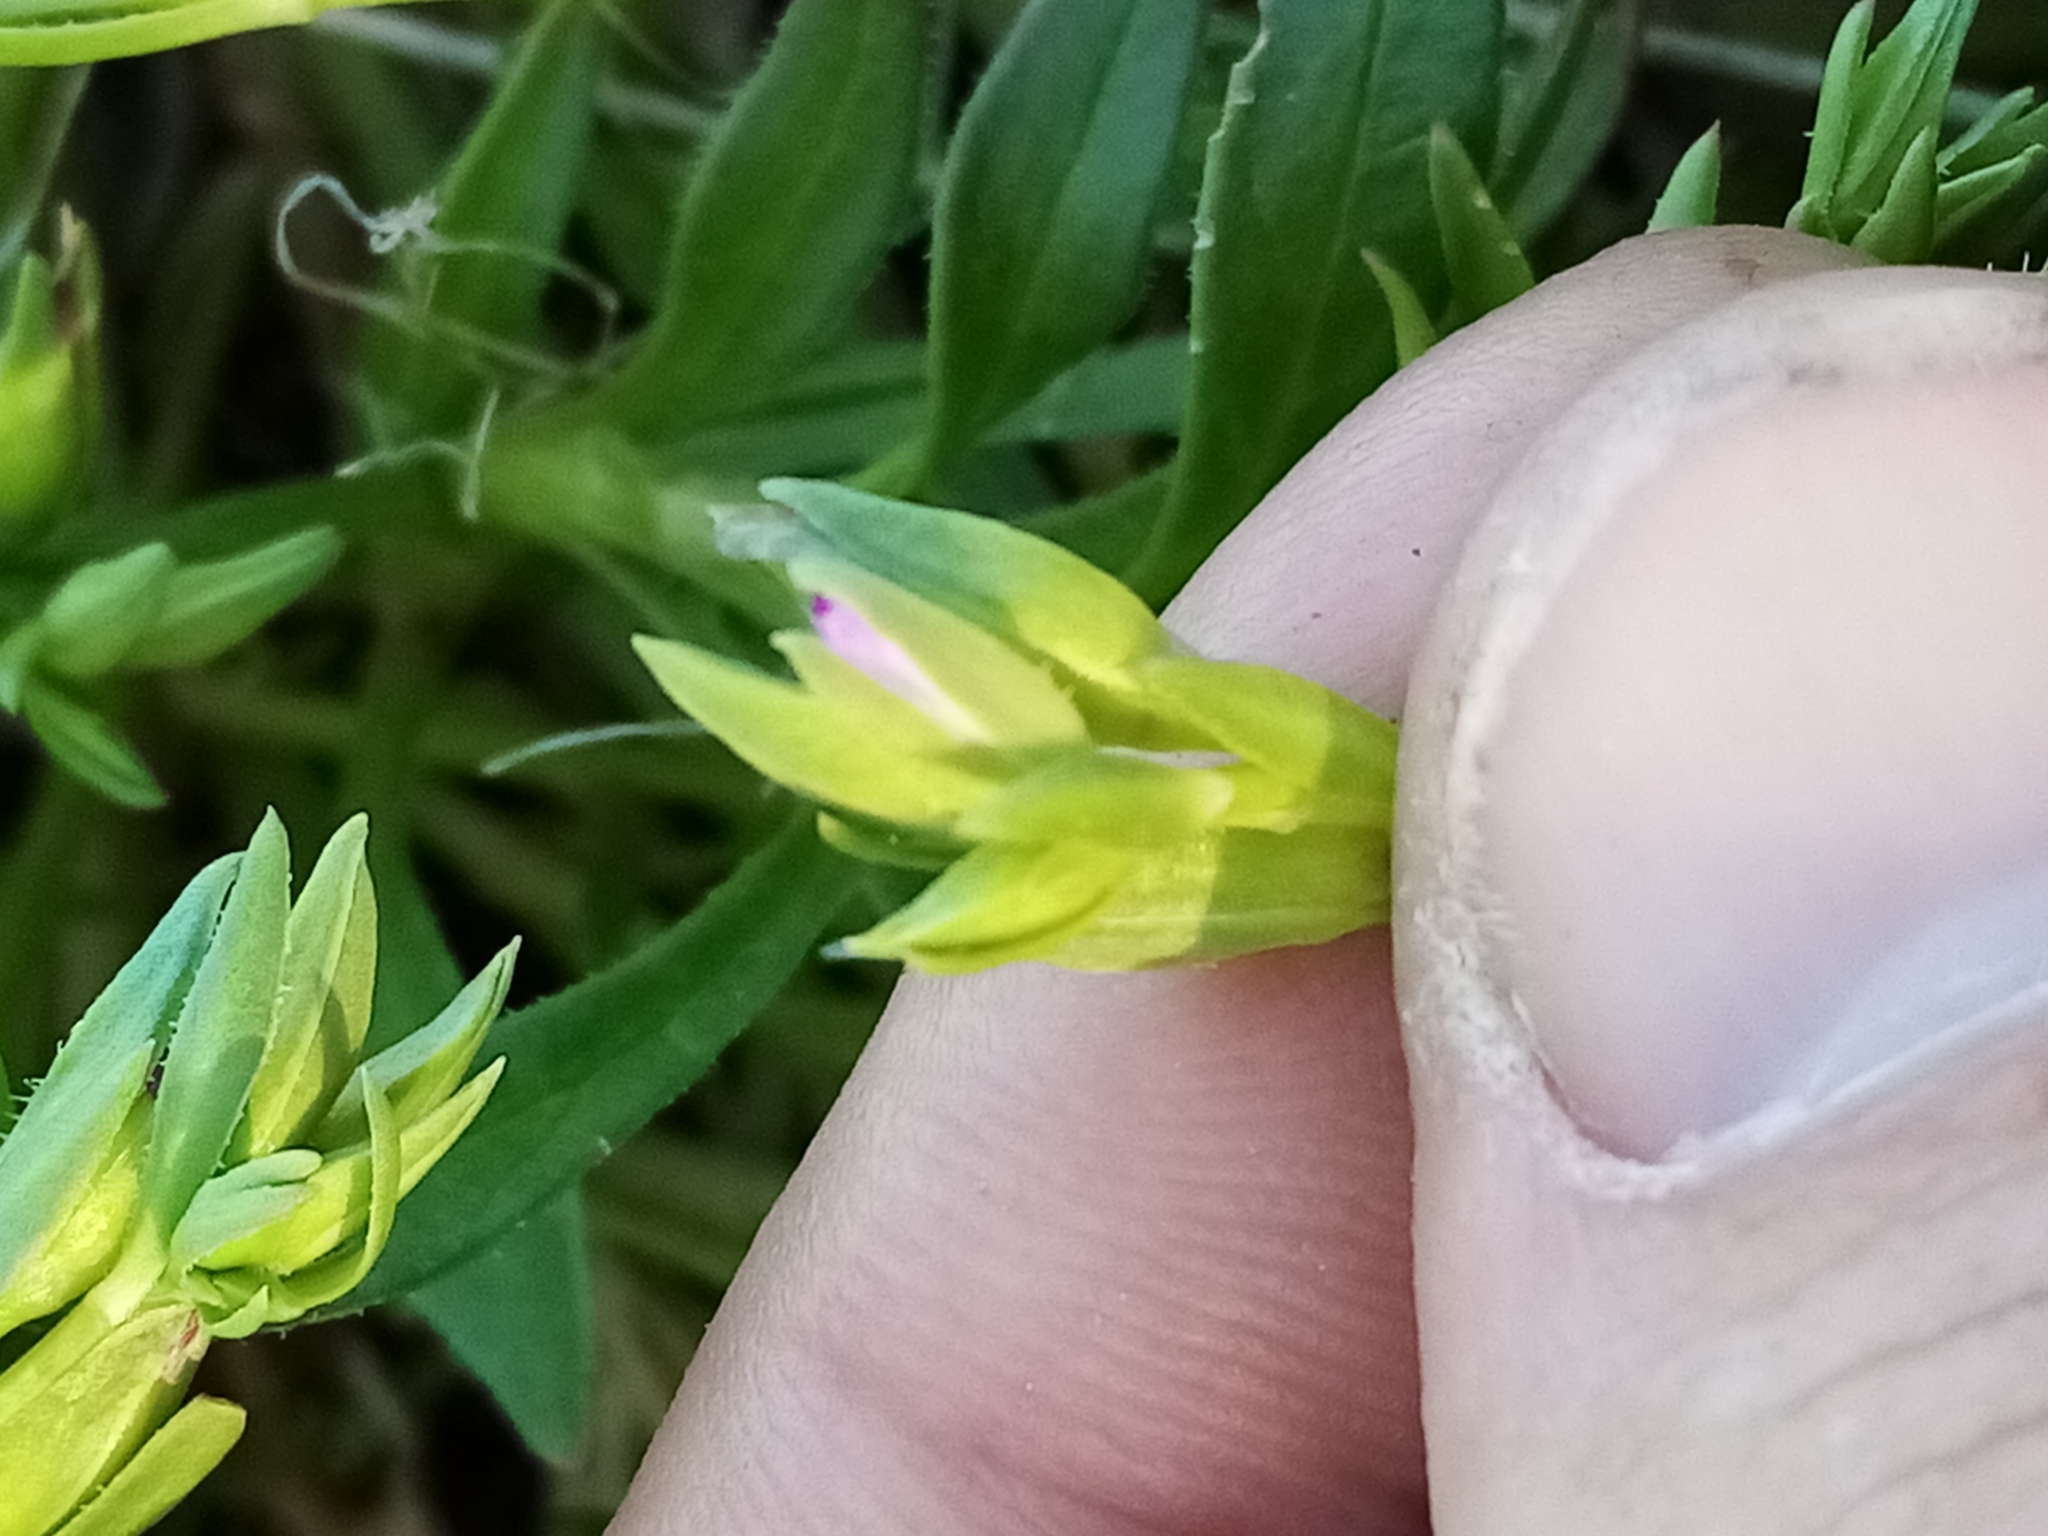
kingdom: Plantae
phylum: Tracheophyta
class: Magnoliopsida
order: Caryophyllales
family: Montiaceae
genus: Calandrinia
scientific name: Calandrinia menziesii
